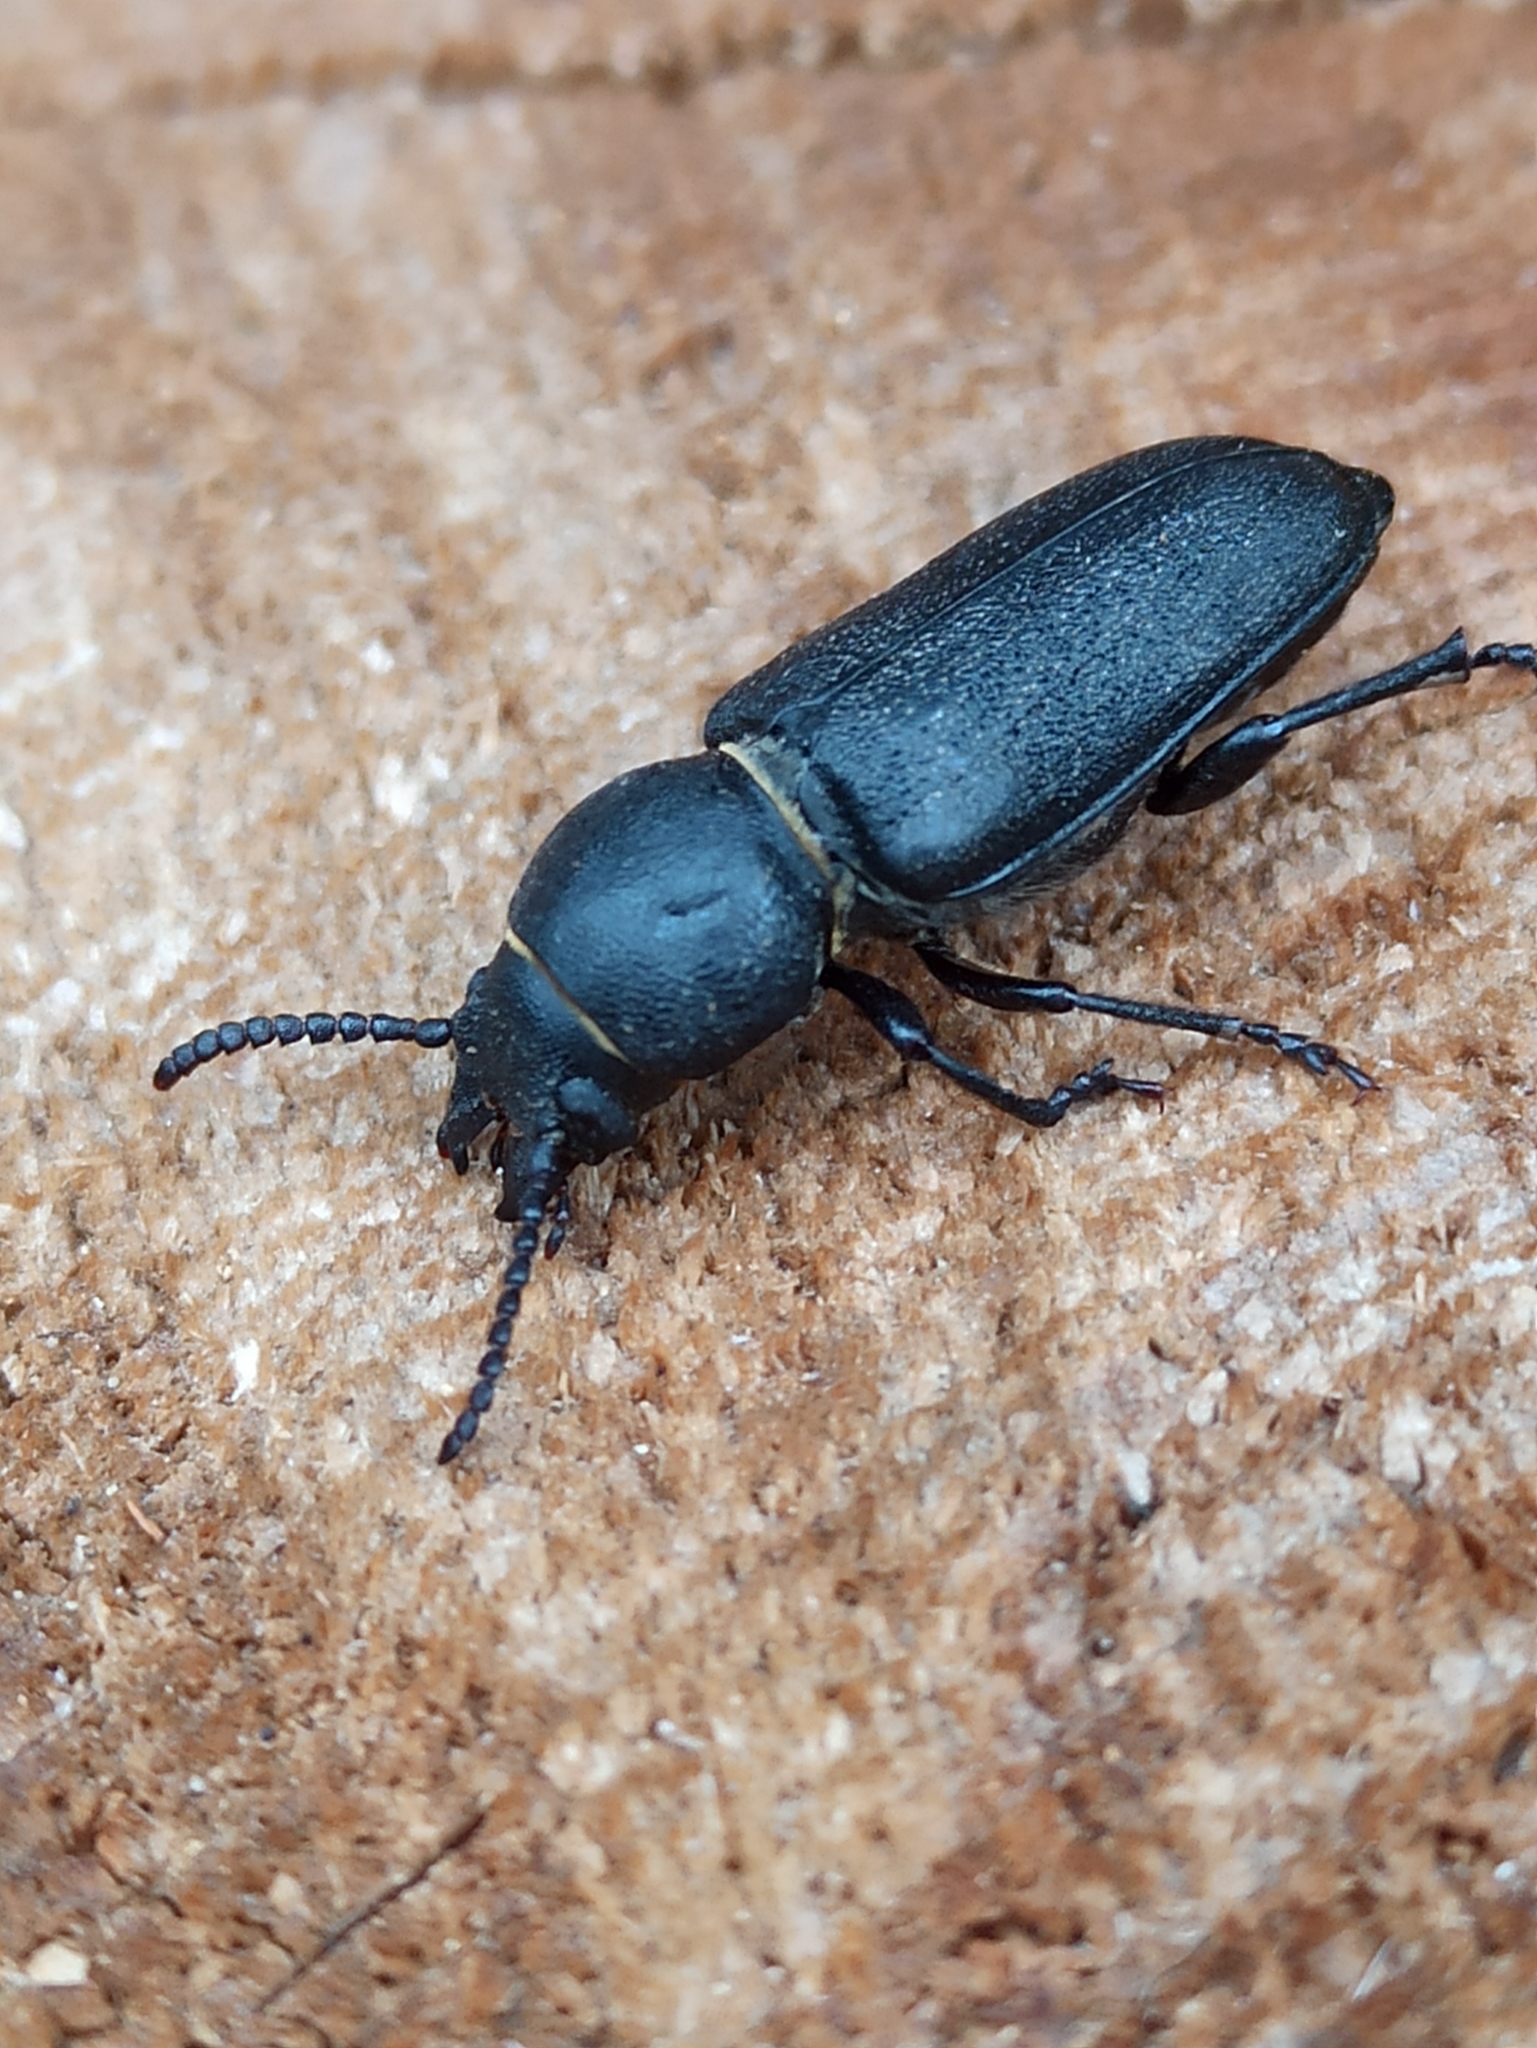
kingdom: Animalia
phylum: Arthropoda
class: Insecta
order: Coleoptera
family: Cerambycidae
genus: Spondylis
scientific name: Spondylis buprestoides
